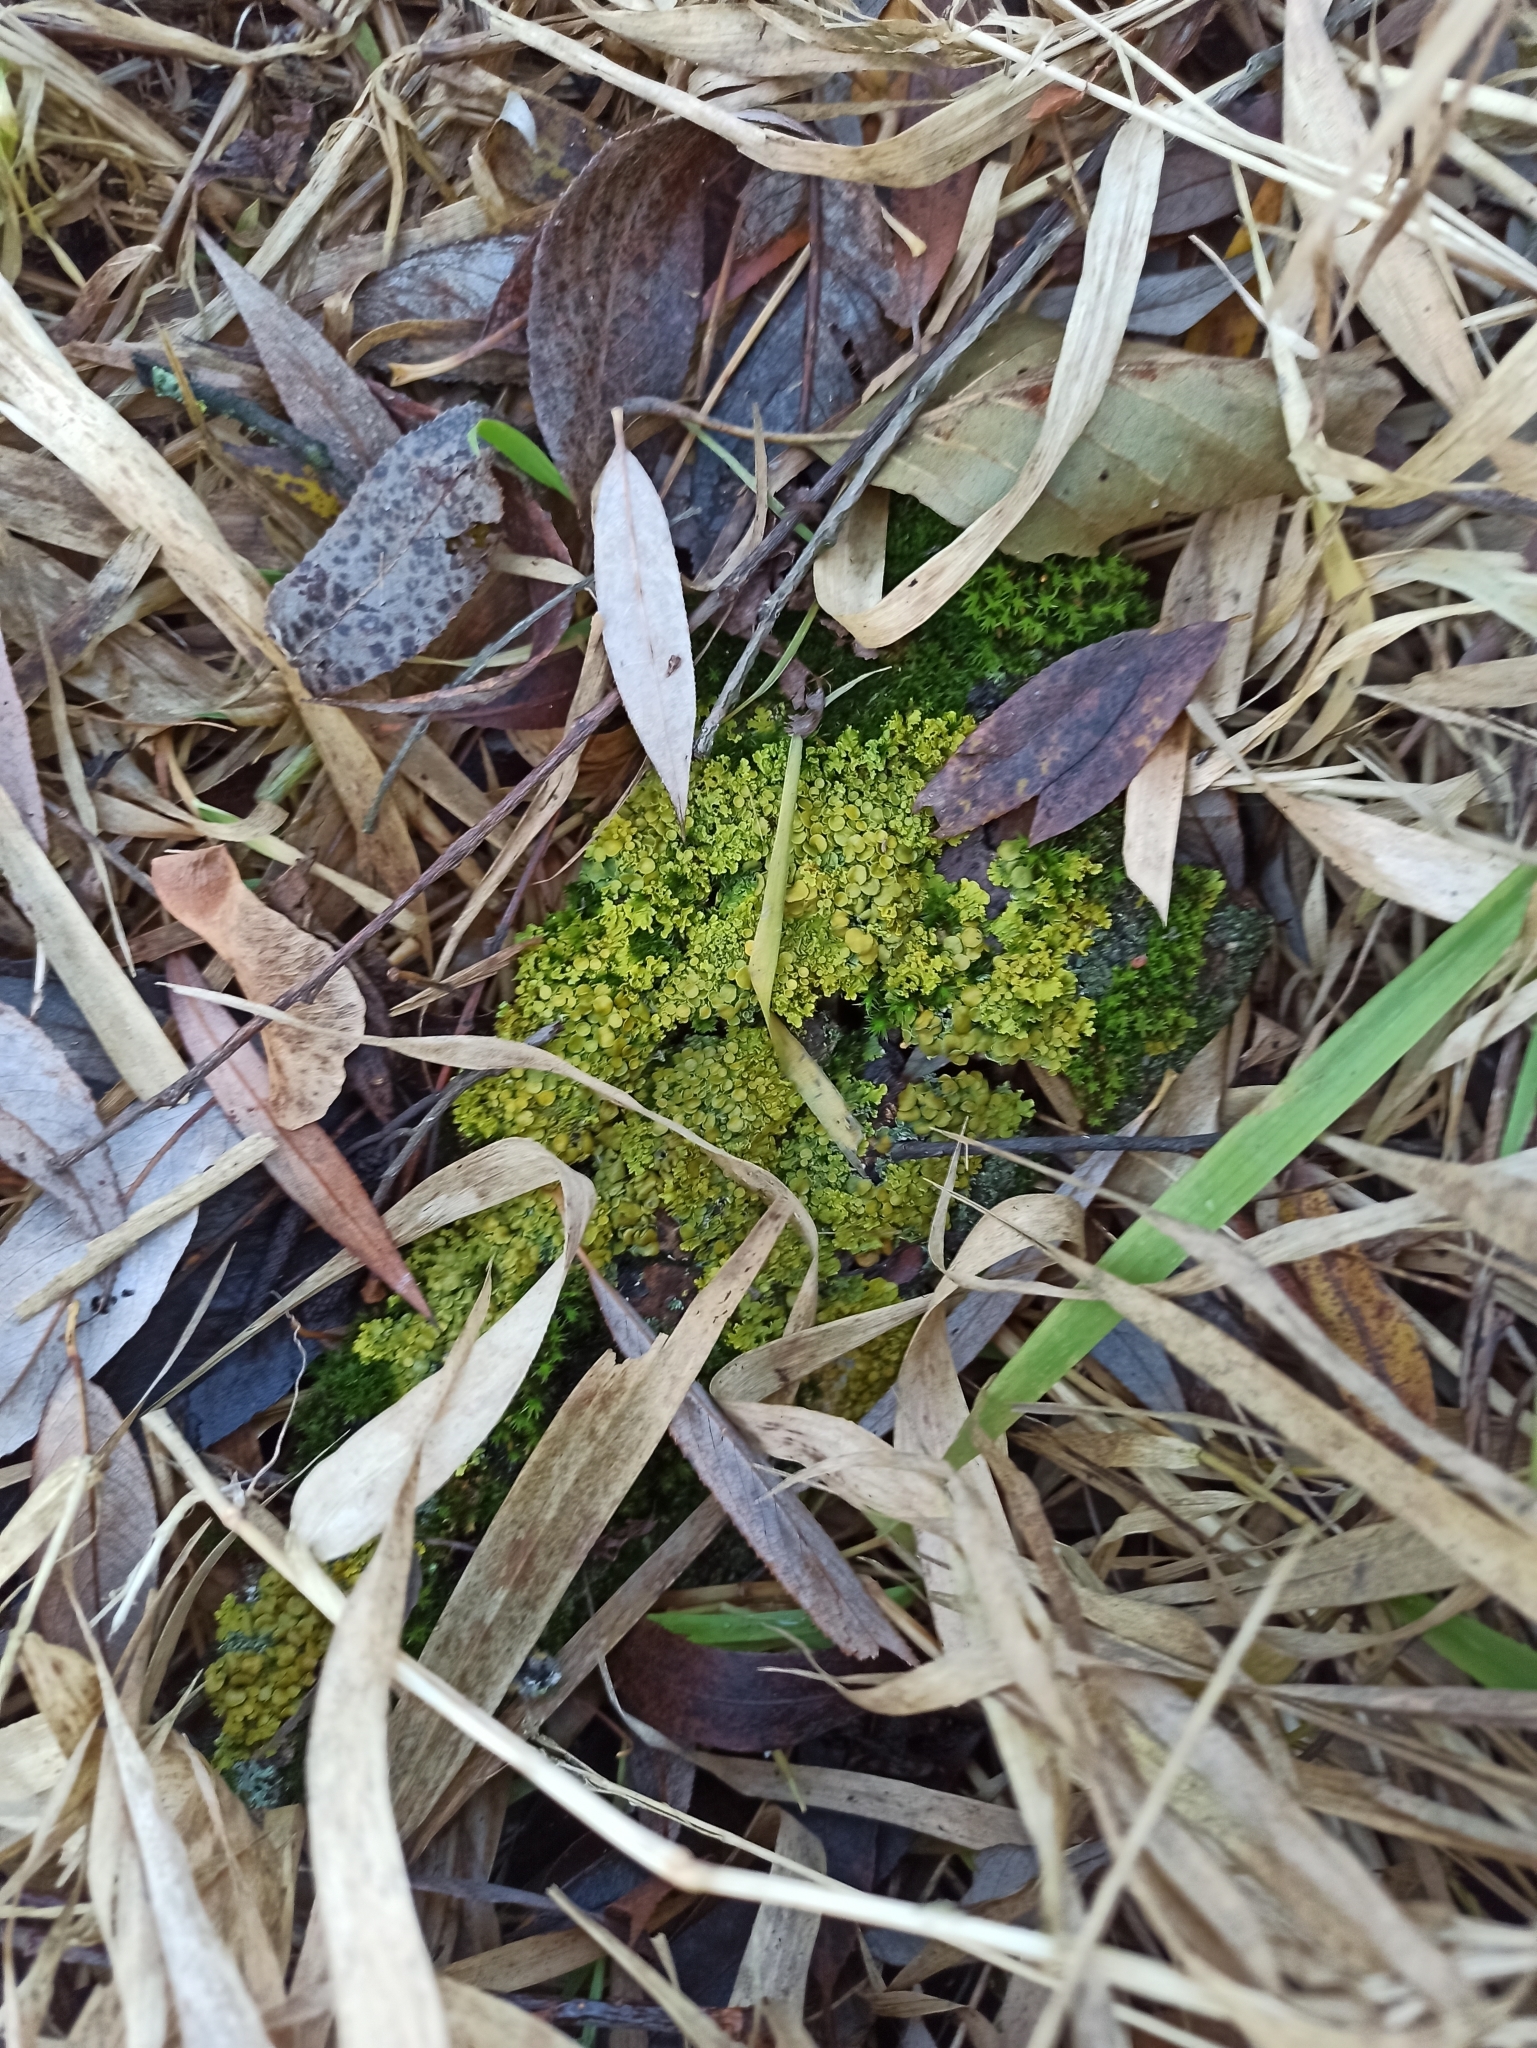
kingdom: Fungi
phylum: Ascomycota
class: Lecanoromycetes
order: Teloschistales
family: Teloschistaceae
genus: Xanthoria
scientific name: Xanthoria parietina
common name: Common orange lichen
